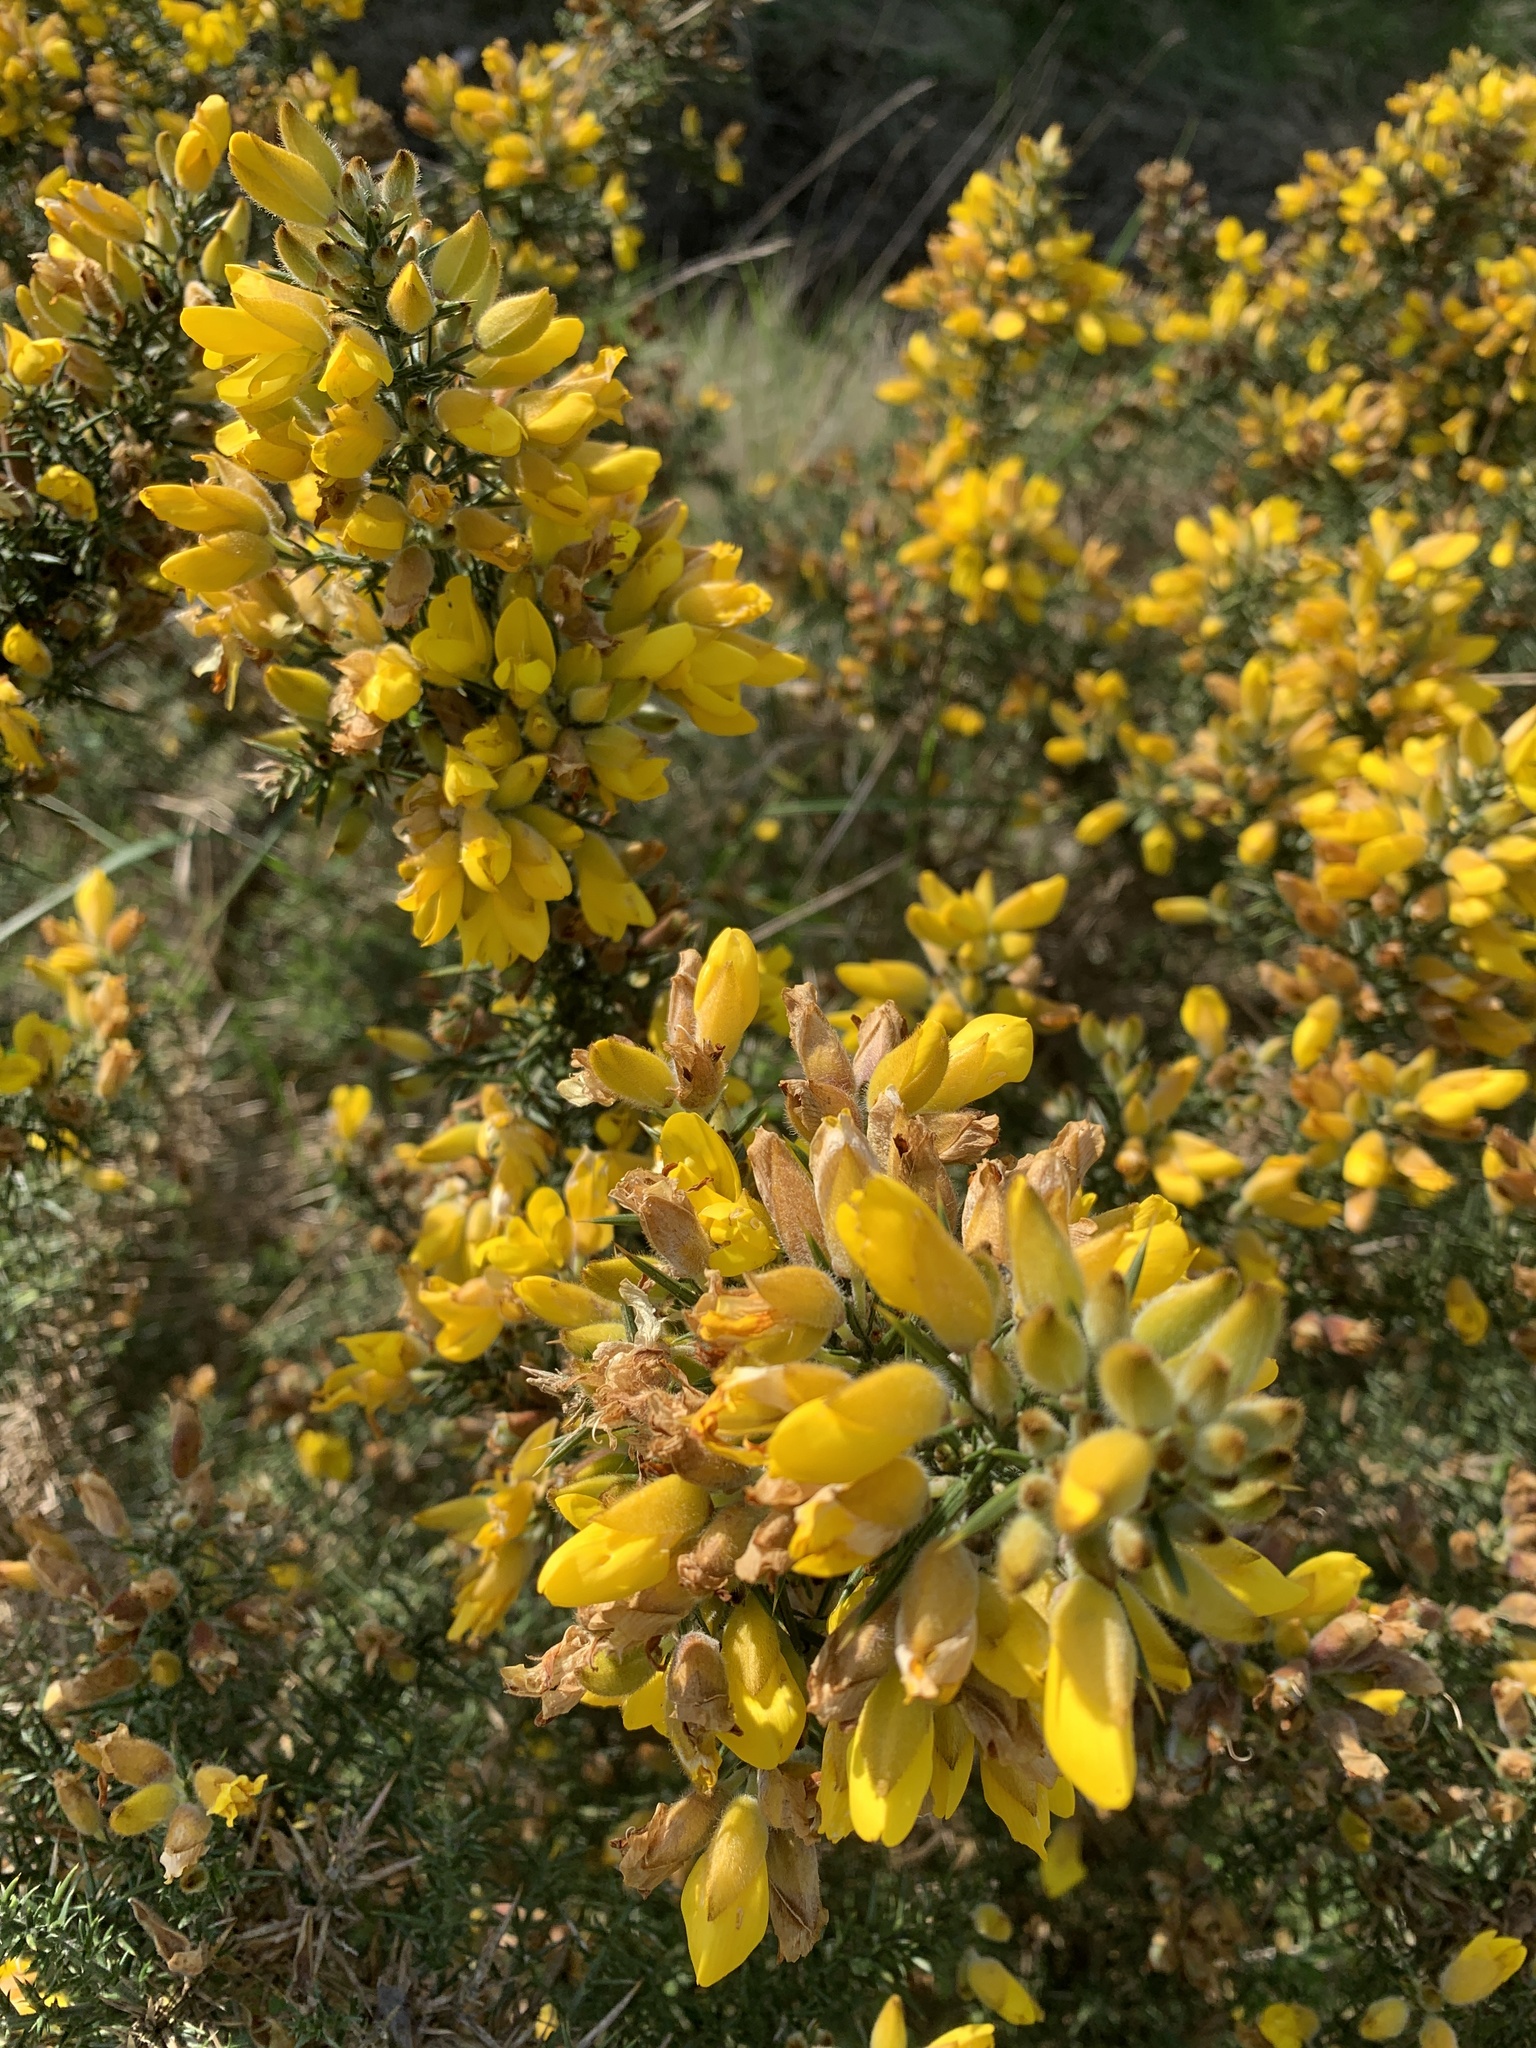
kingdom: Plantae
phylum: Tracheophyta
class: Magnoliopsida
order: Fabales
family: Fabaceae
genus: Ulex
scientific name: Ulex europaeus
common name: Common gorse
